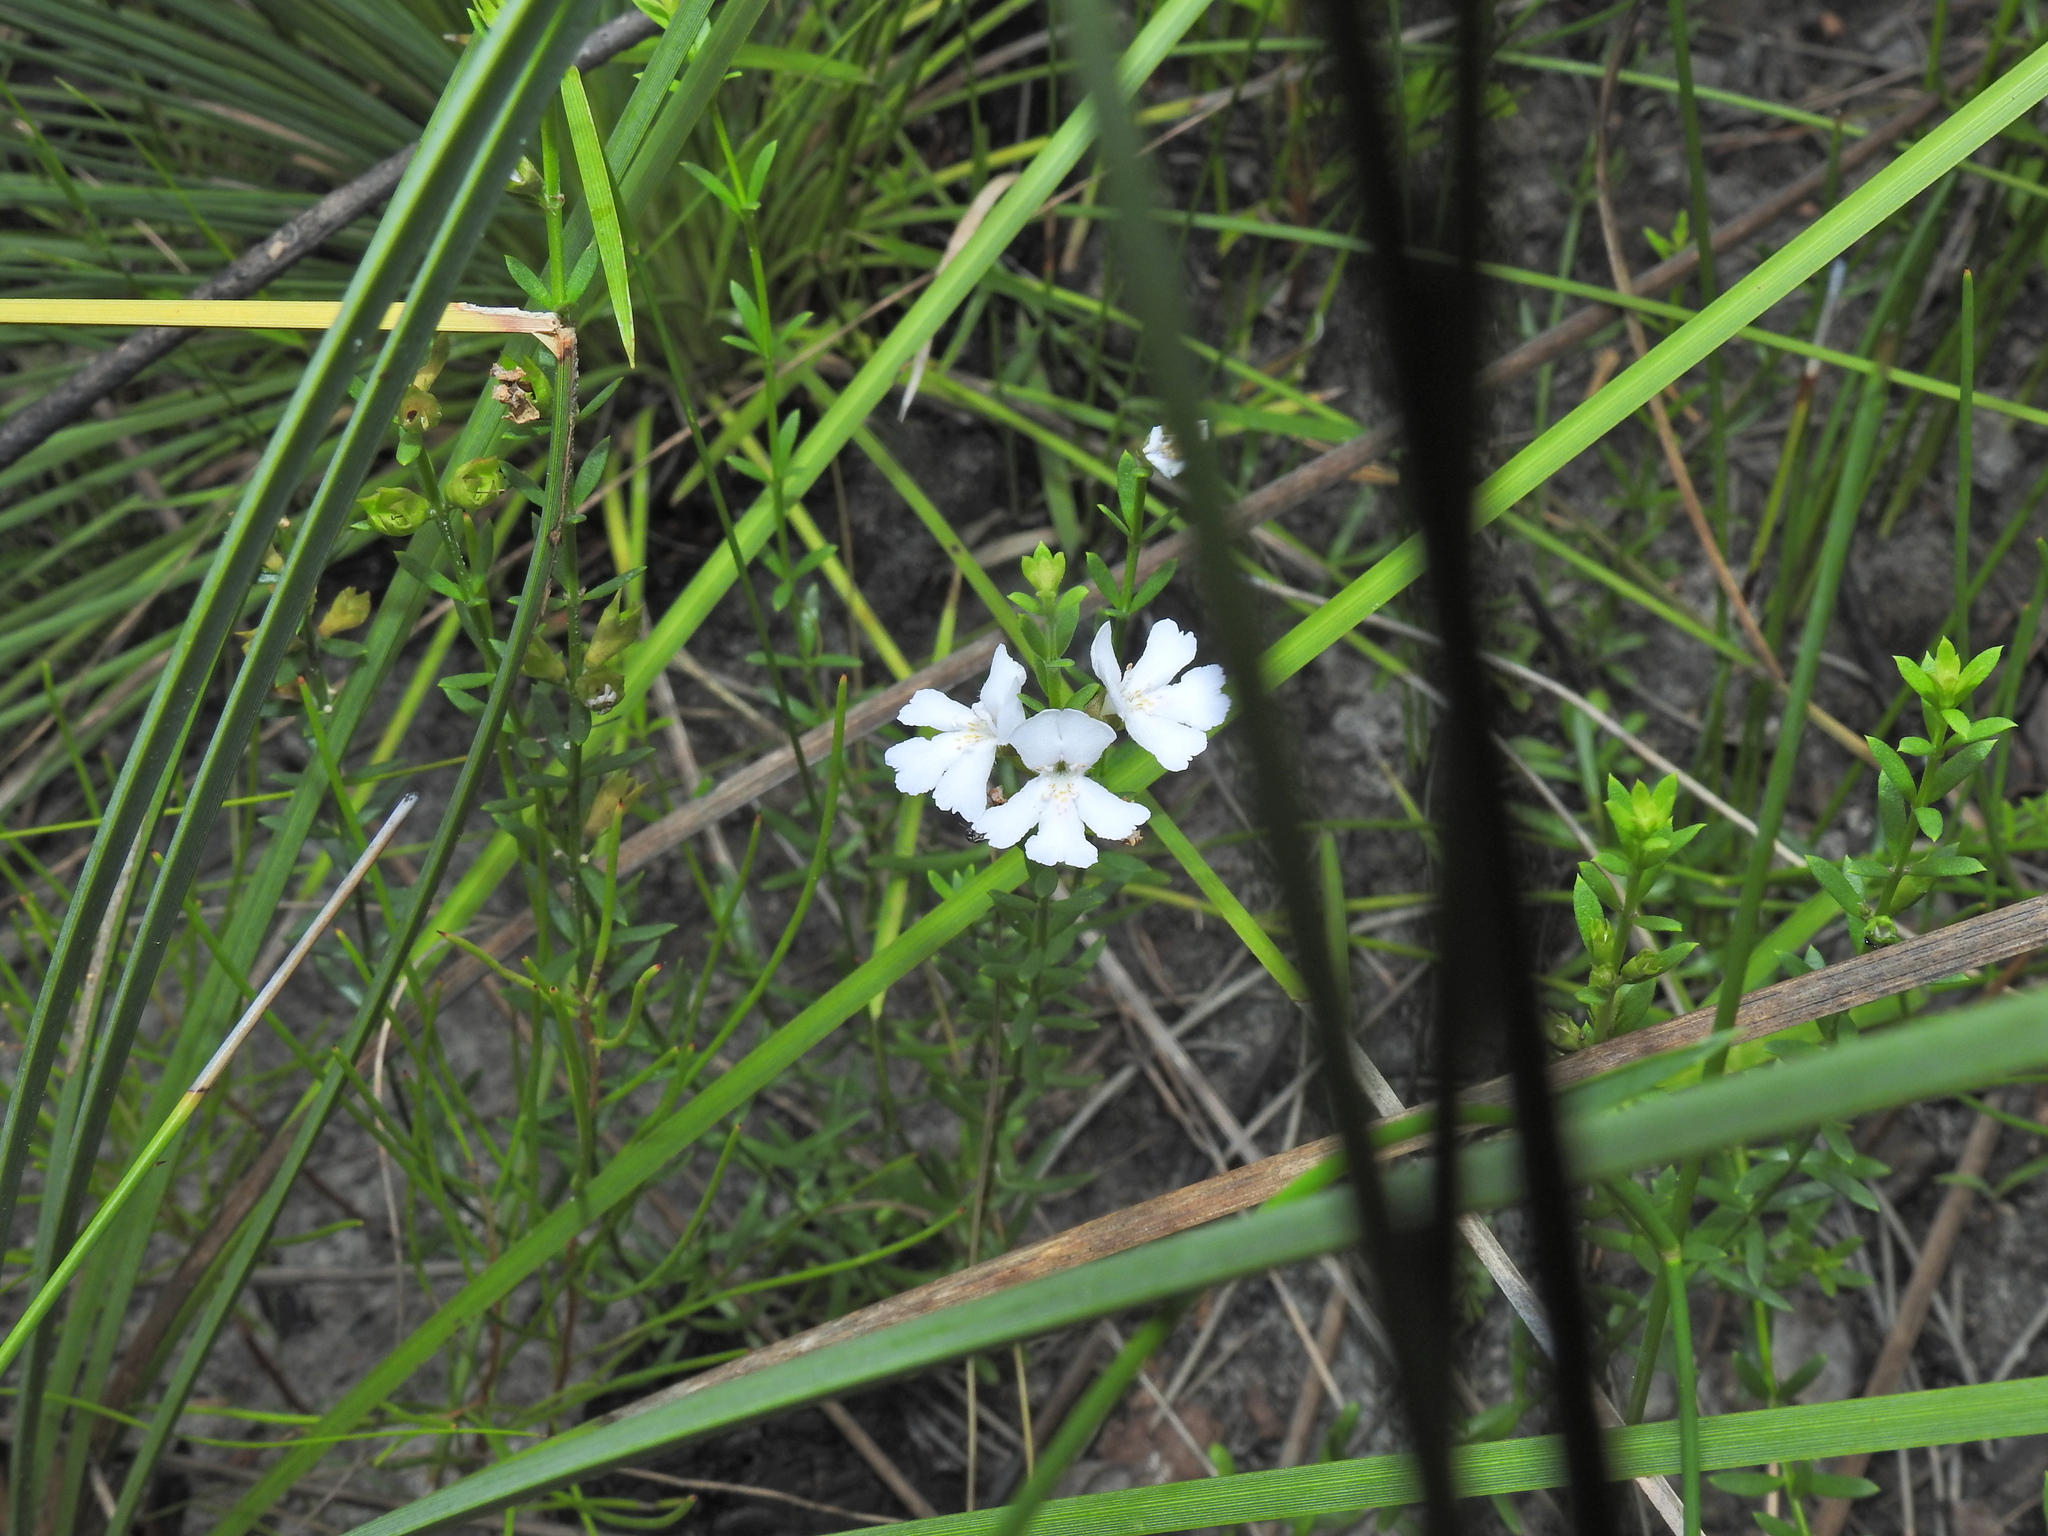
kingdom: Plantae
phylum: Tracheophyta
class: Magnoliopsida
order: Lamiales
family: Lamiaceae
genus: Westringia
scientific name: Westringia tenuicaulis
